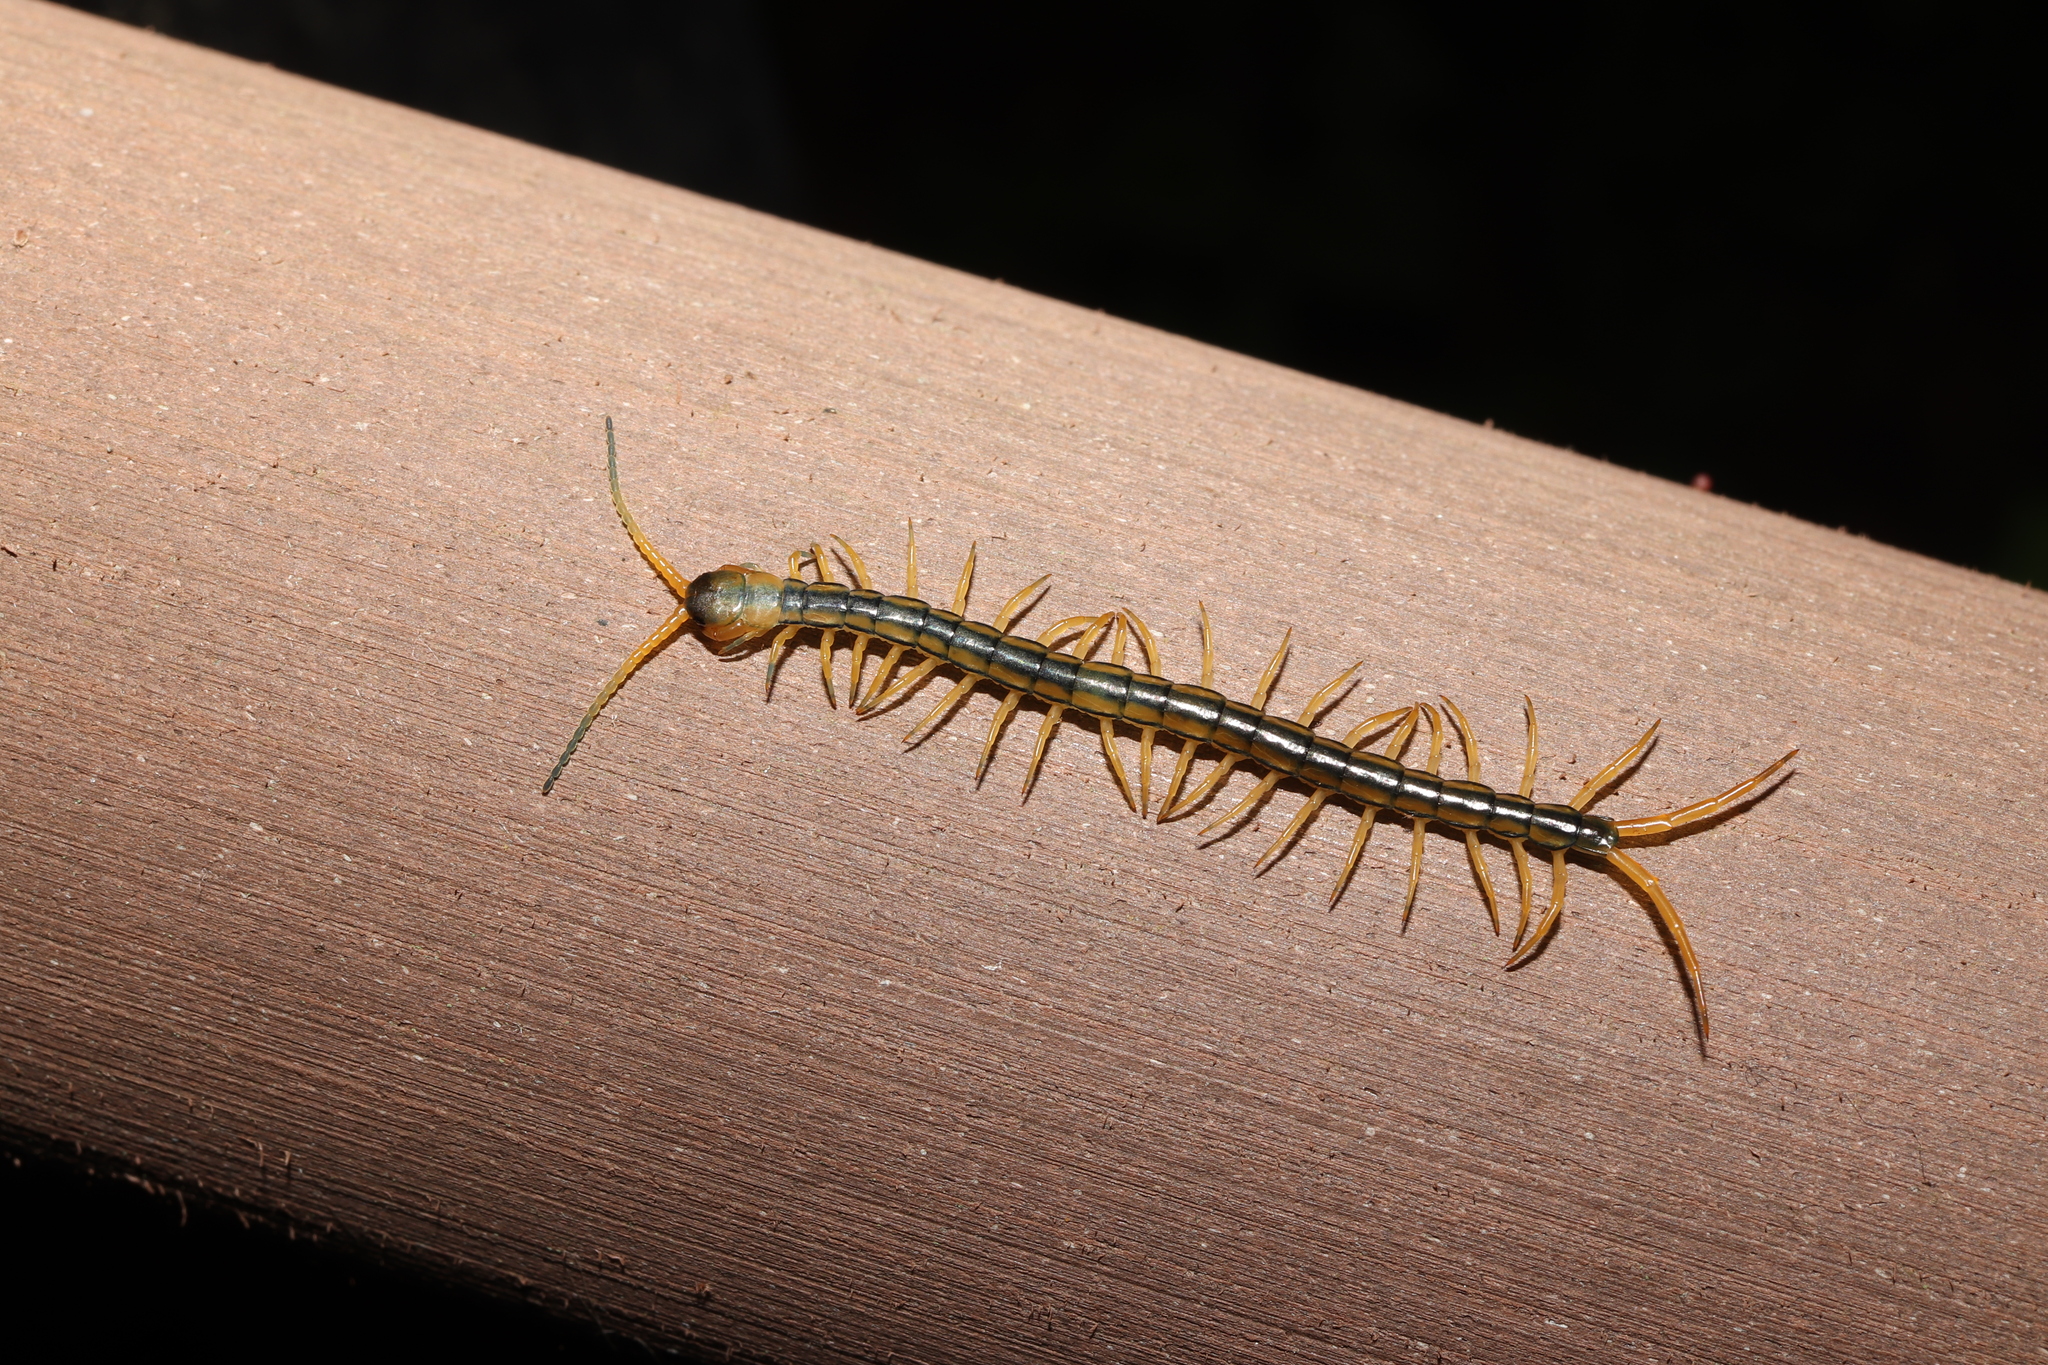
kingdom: Animalia
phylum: Arthropoda
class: Chilopoda
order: Scolopendromorpha
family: Scolopendridae
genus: Scolopendra
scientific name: Scolopendra mutilans
